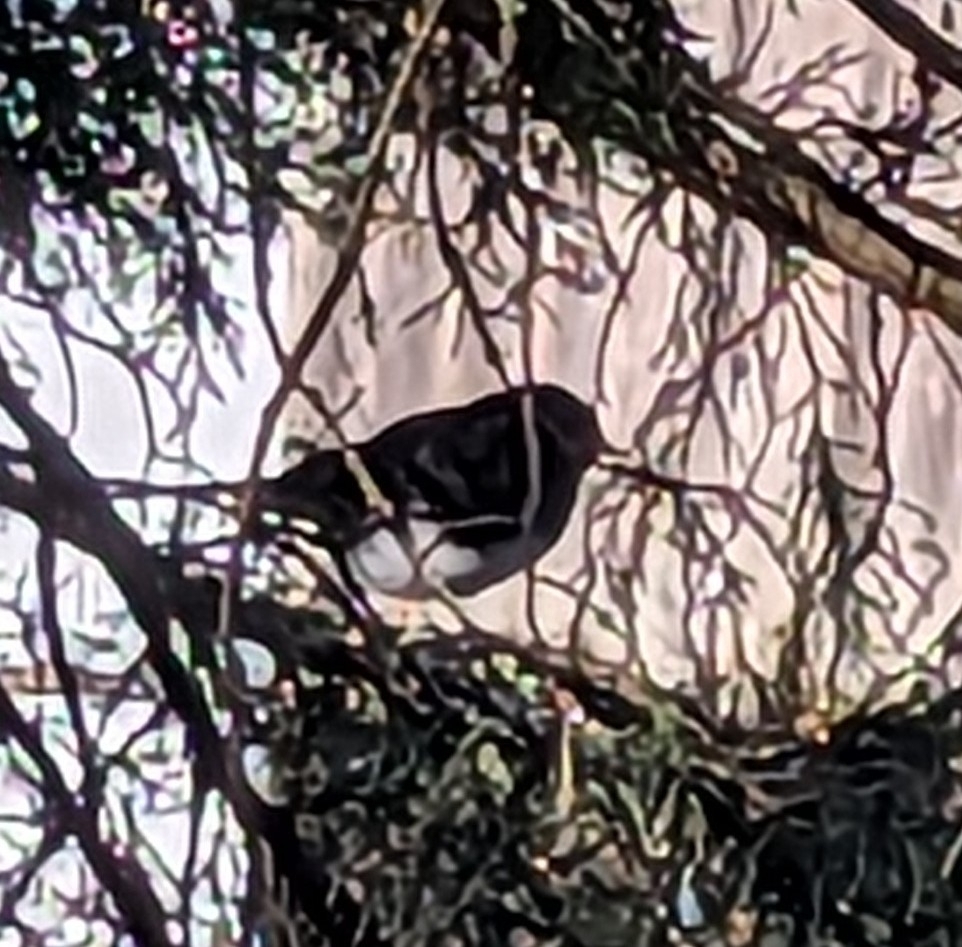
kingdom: Animalia
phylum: Chordata
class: Aves
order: Passeriformes
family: Passerellidae
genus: Junco
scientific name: Junco hyemalis
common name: Dark-eyed junco
